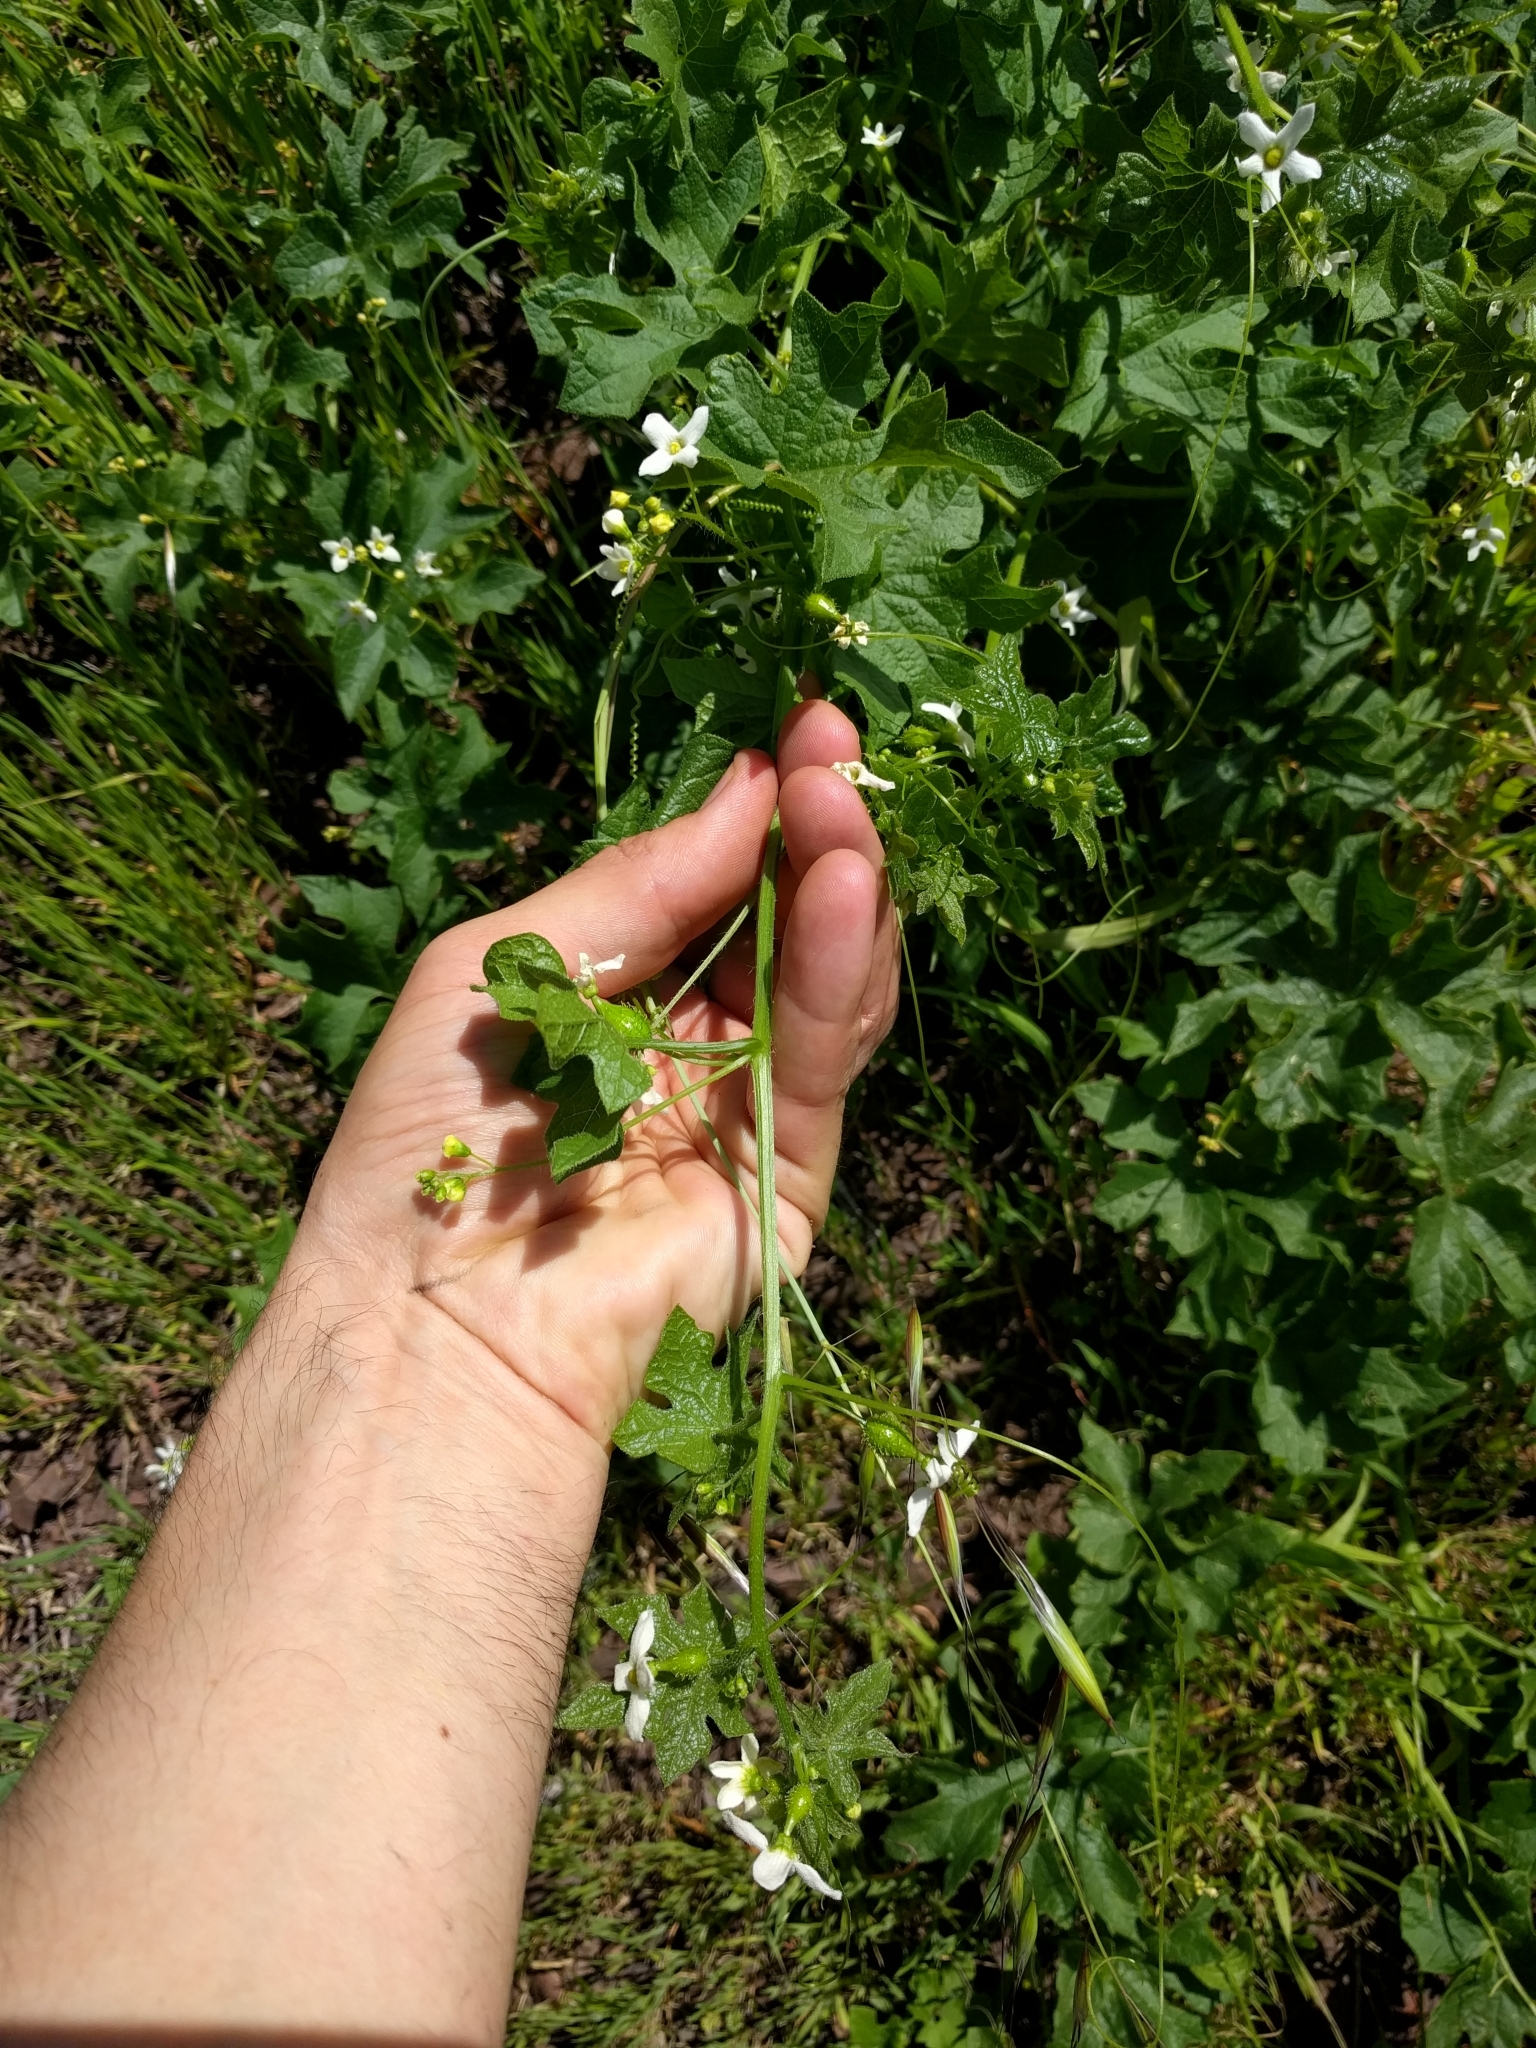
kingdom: Plantae
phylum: Tracheophyta
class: Magnoliopsida
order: Cucurbitales
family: Cucurbitaceae
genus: Marah
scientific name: Marah oregana
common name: Coastal manroot
